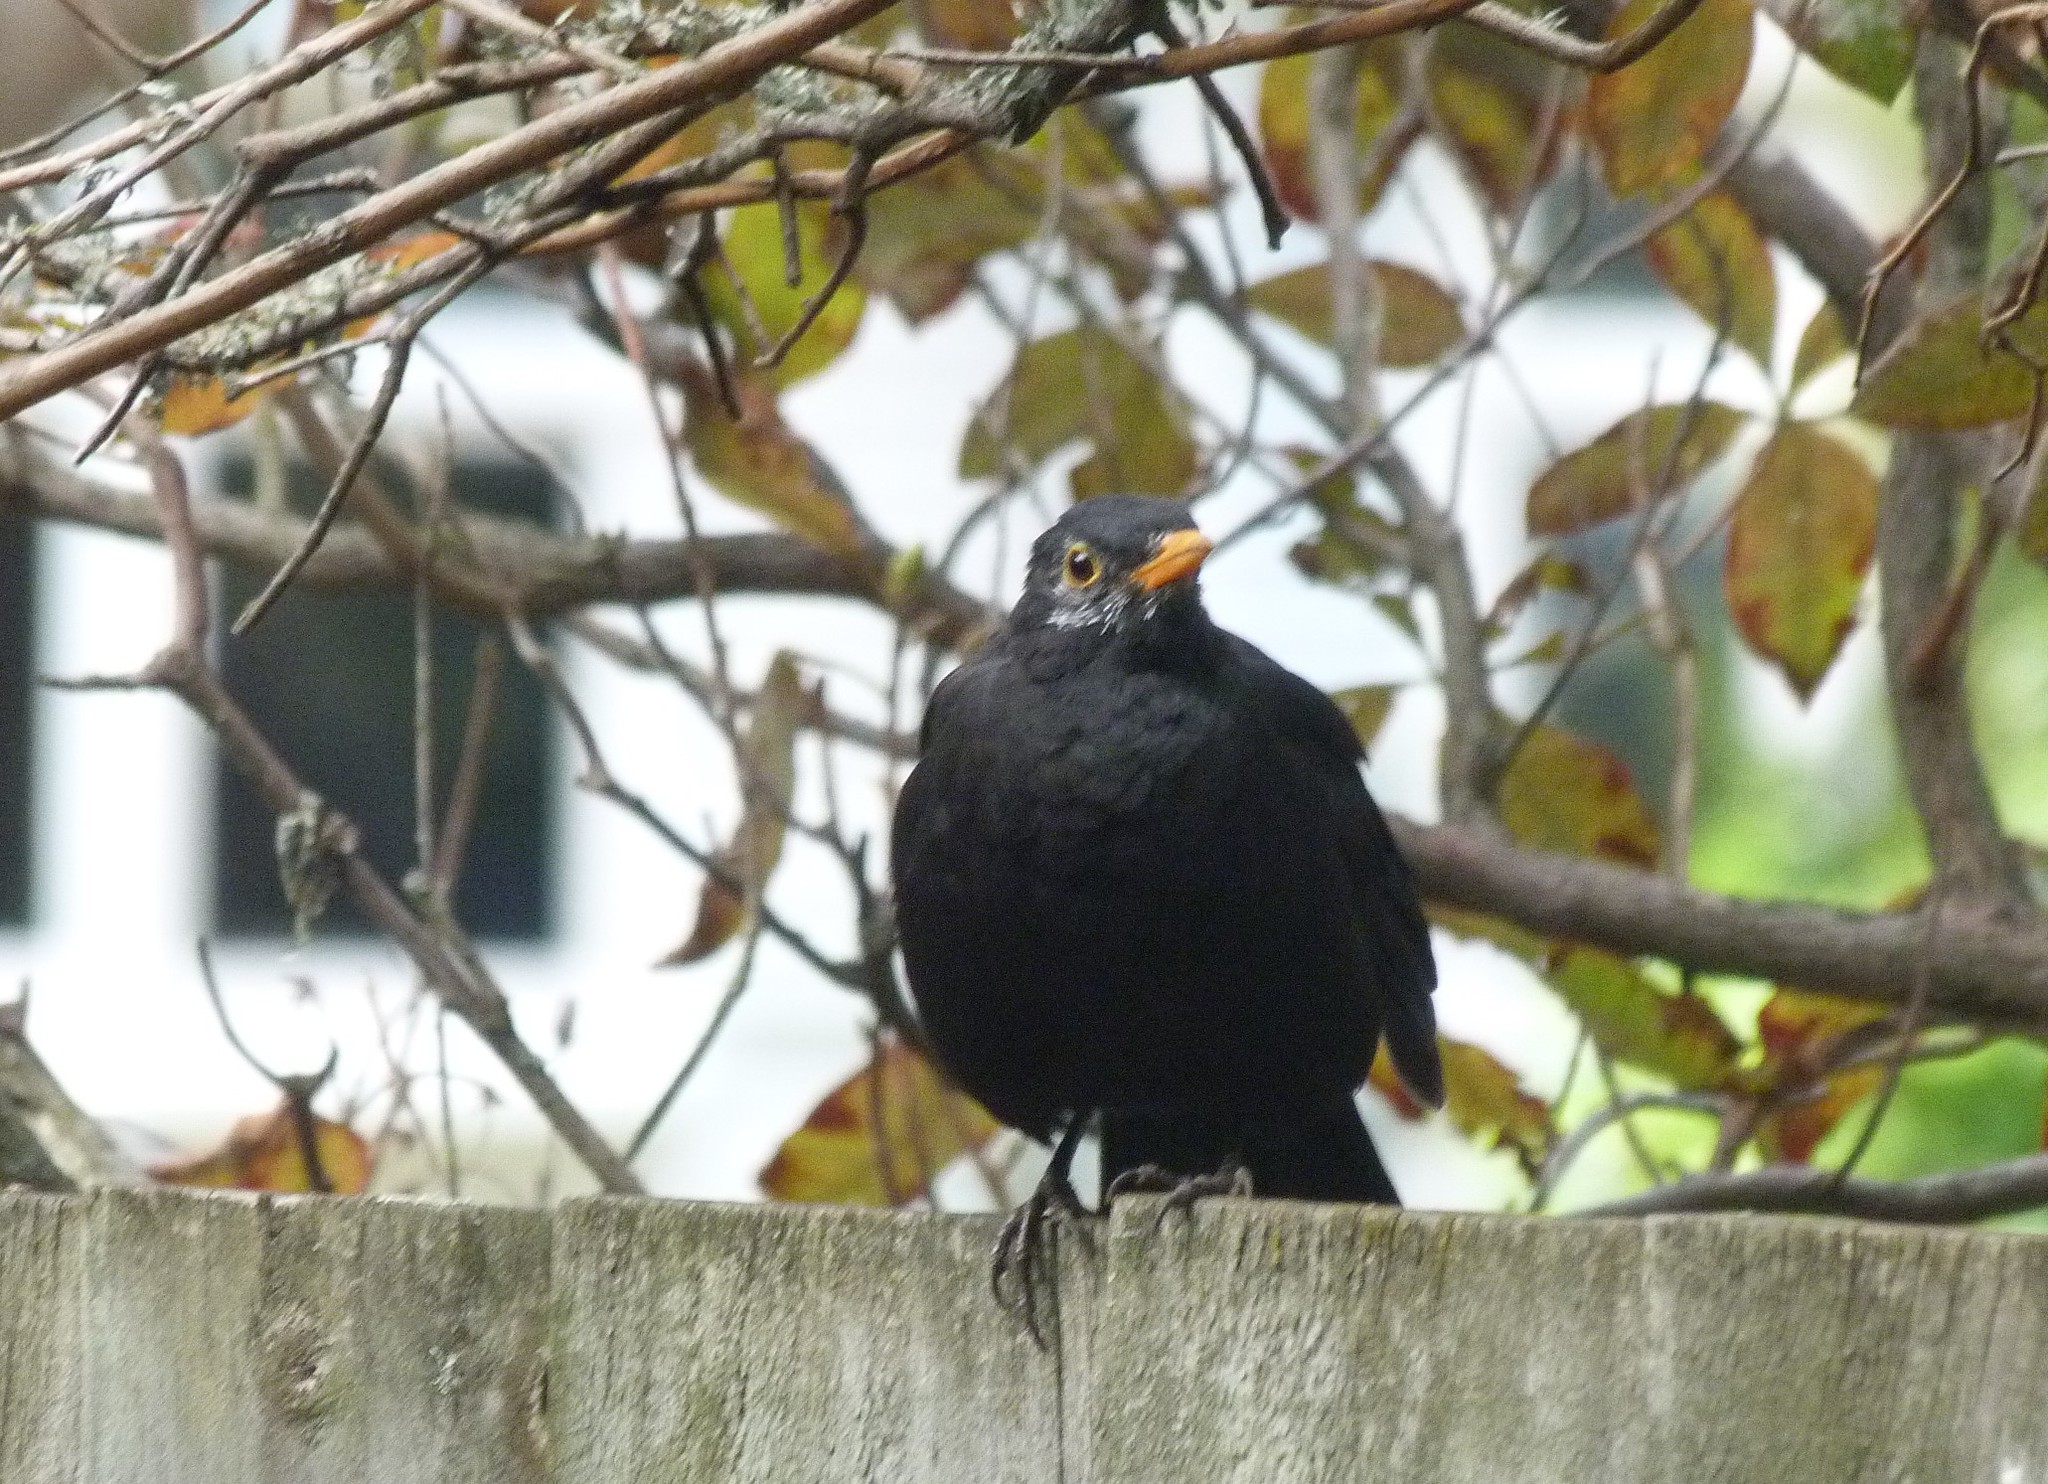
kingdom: Animalia
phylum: Chordata
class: Aves
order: Passeriformes
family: Turdidae
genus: Turdus
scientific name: Turdus merula
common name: Common blackbird
